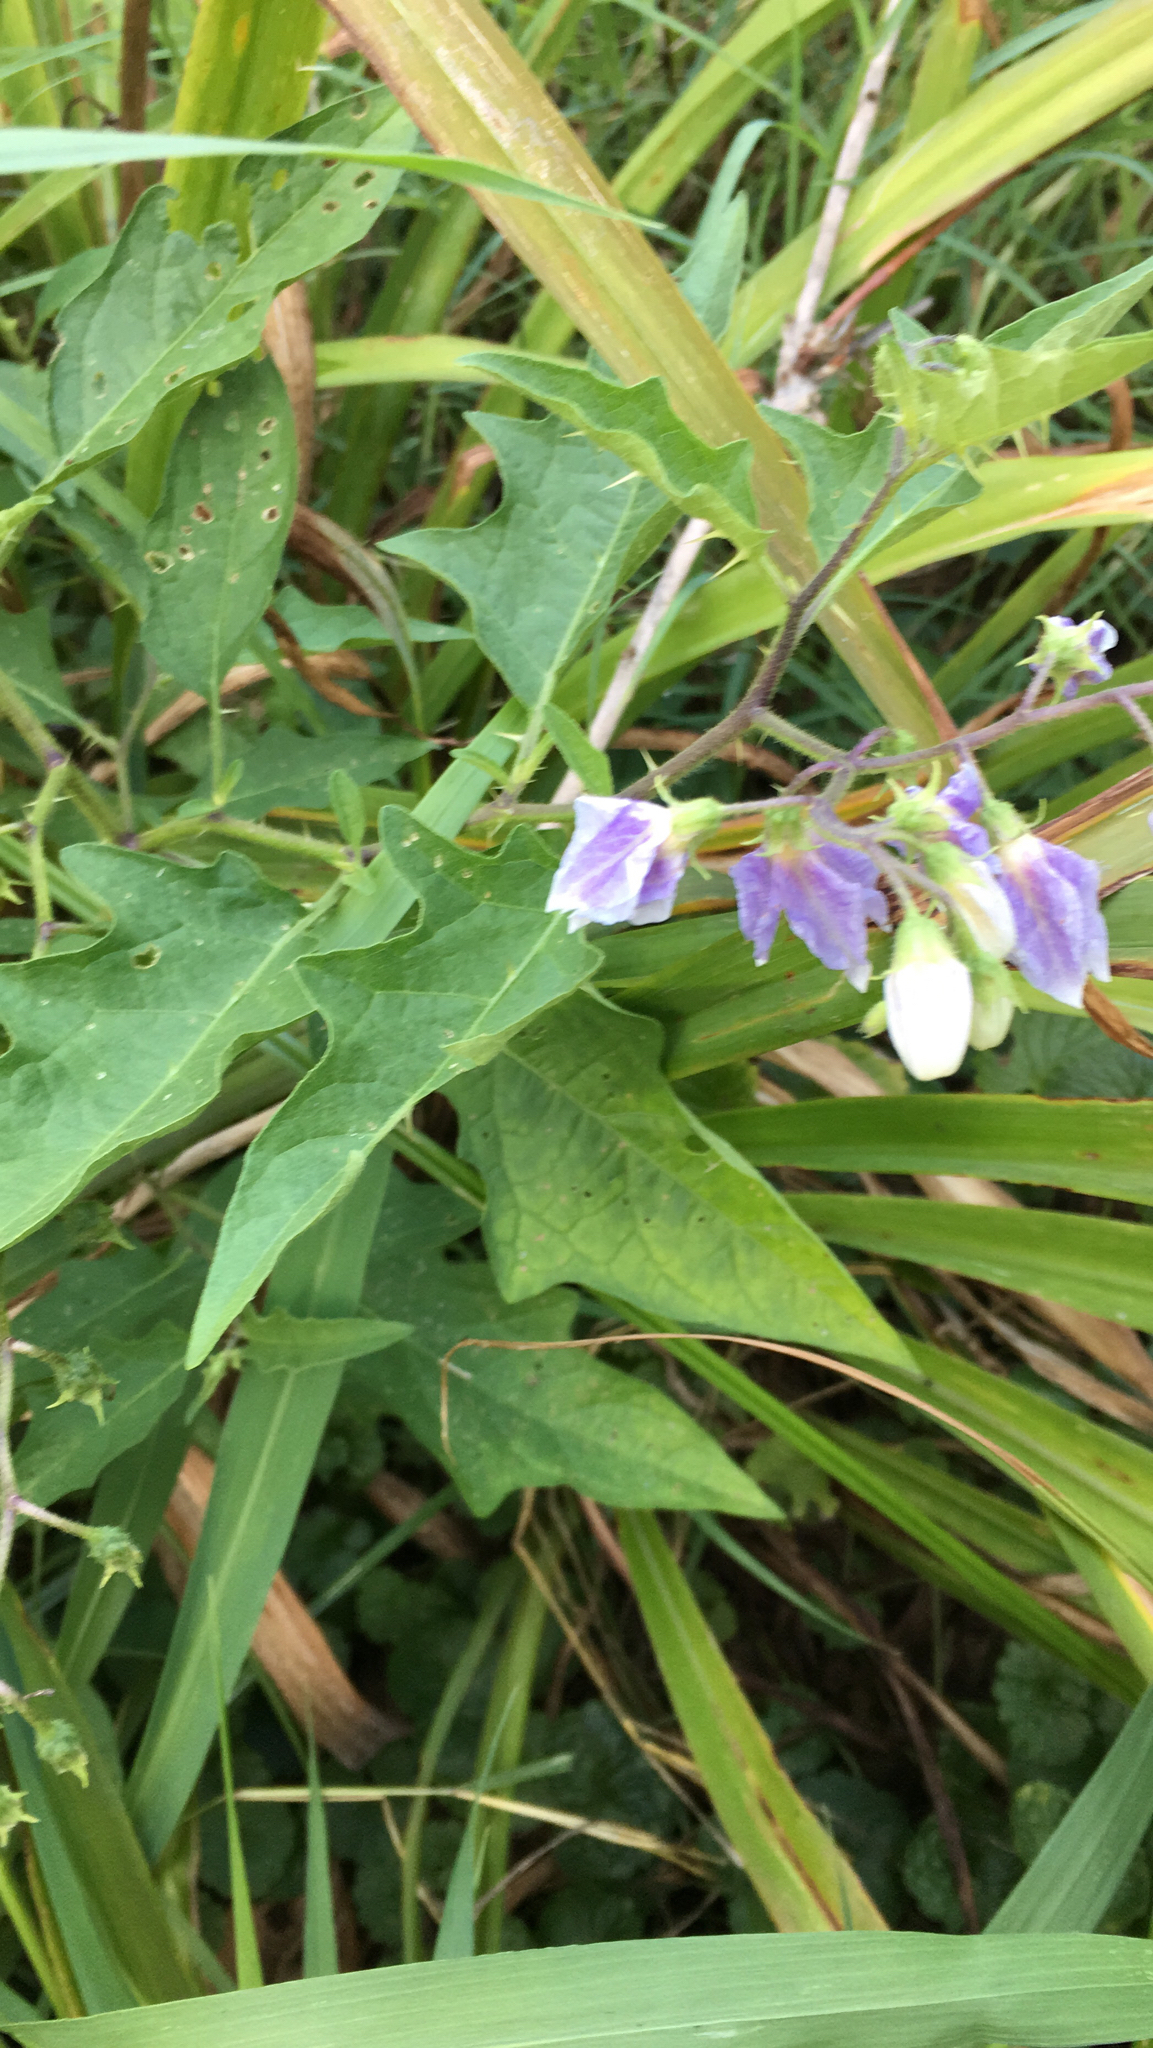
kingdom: Plantae
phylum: Tracheophyta
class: Magnoliopsida
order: Solanales
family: Solanaceae
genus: Solanum
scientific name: Solanum carolinense
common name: Horse-nettle
